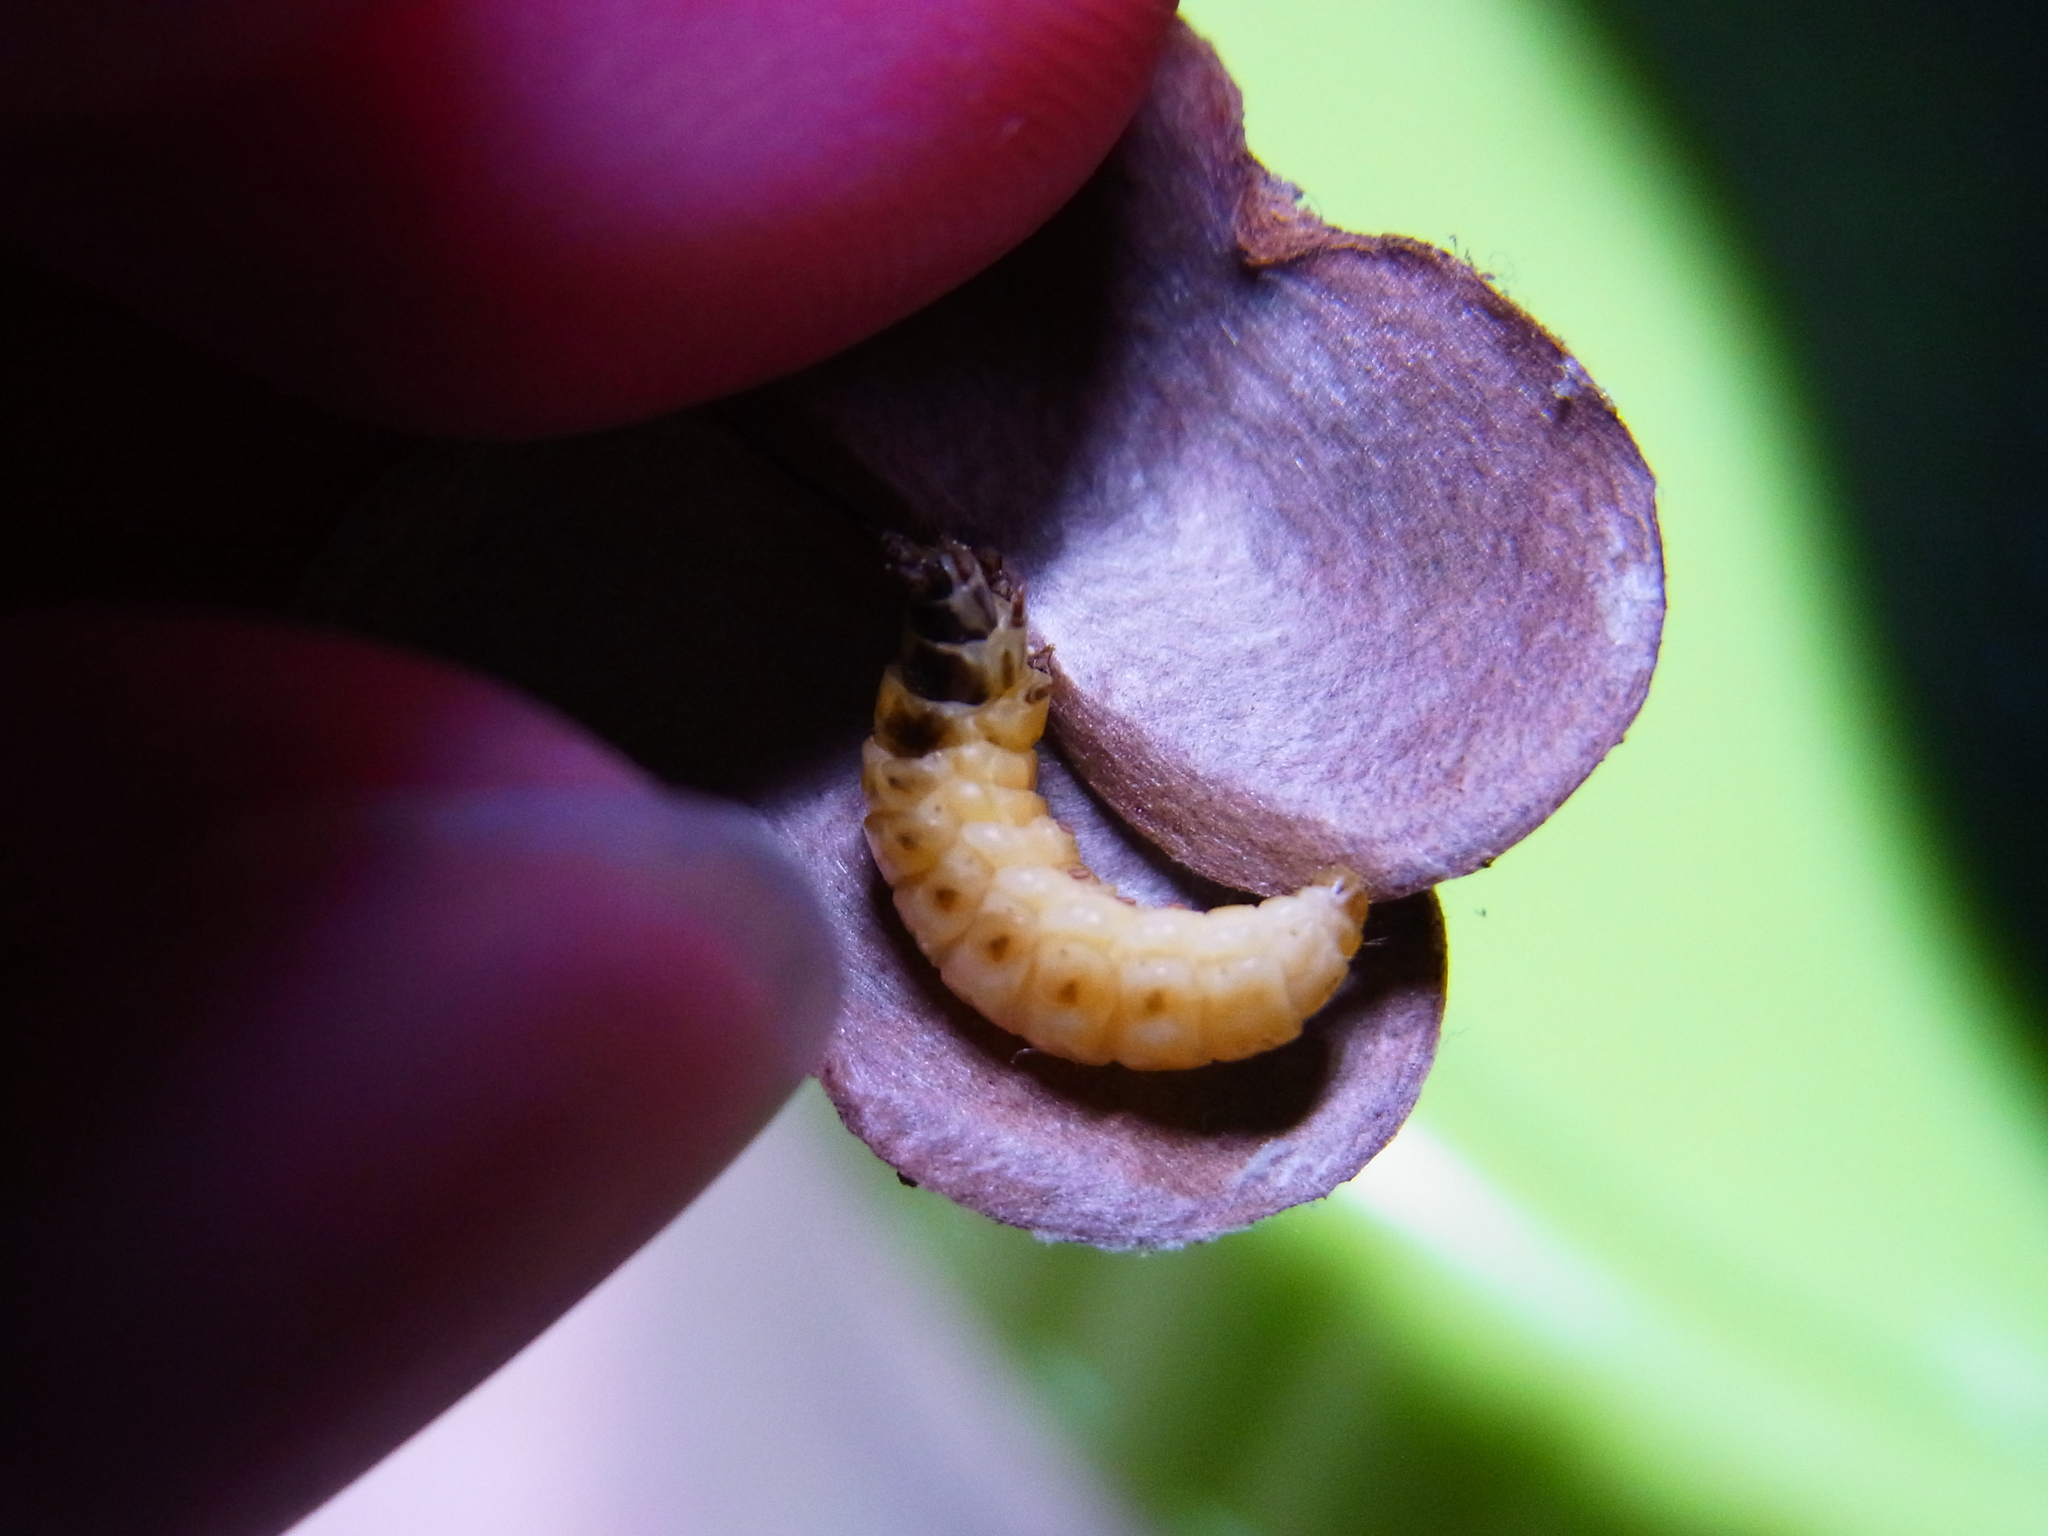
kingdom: Animalia
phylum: Arthropoda
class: Insecta
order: Lepidoptera
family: Tineidae
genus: Ippa
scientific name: Ippa conspersa
